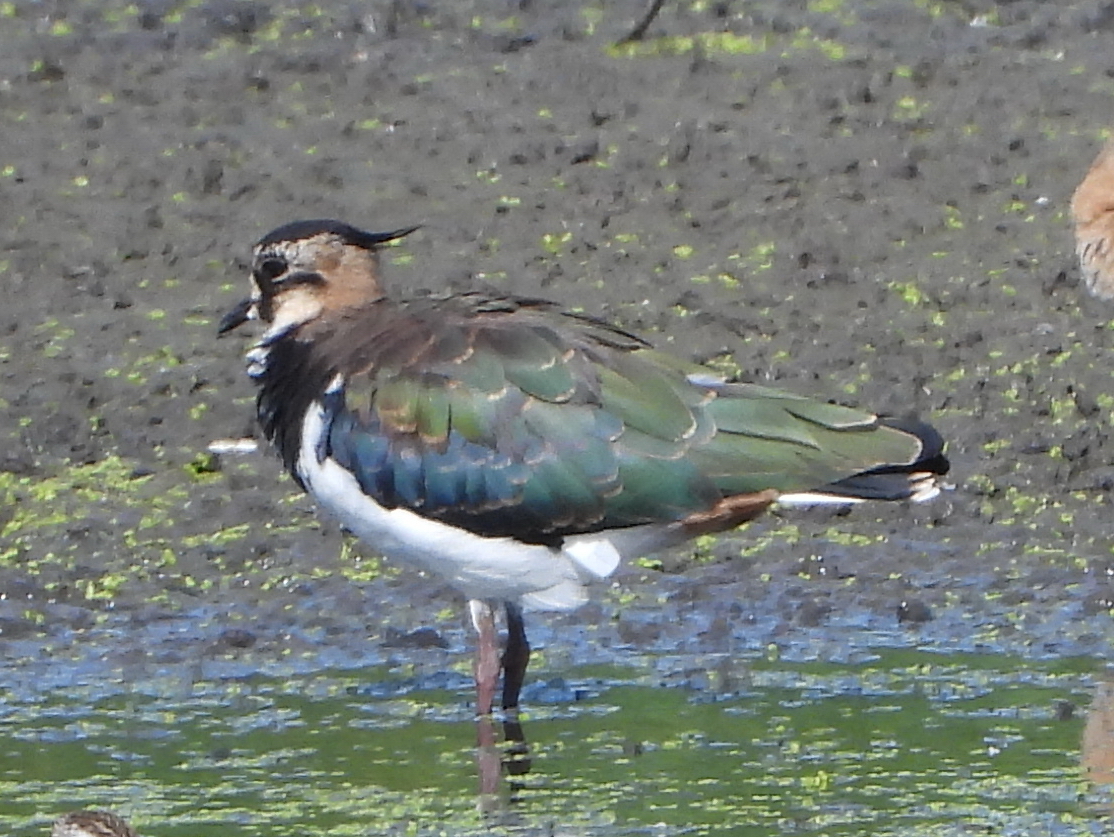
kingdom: Animalia
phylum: Chordata
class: Aves
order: Charadriiformes
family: Charadriidae
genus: Vanellus
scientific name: Vanellus vanellus
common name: Northern lapwing
